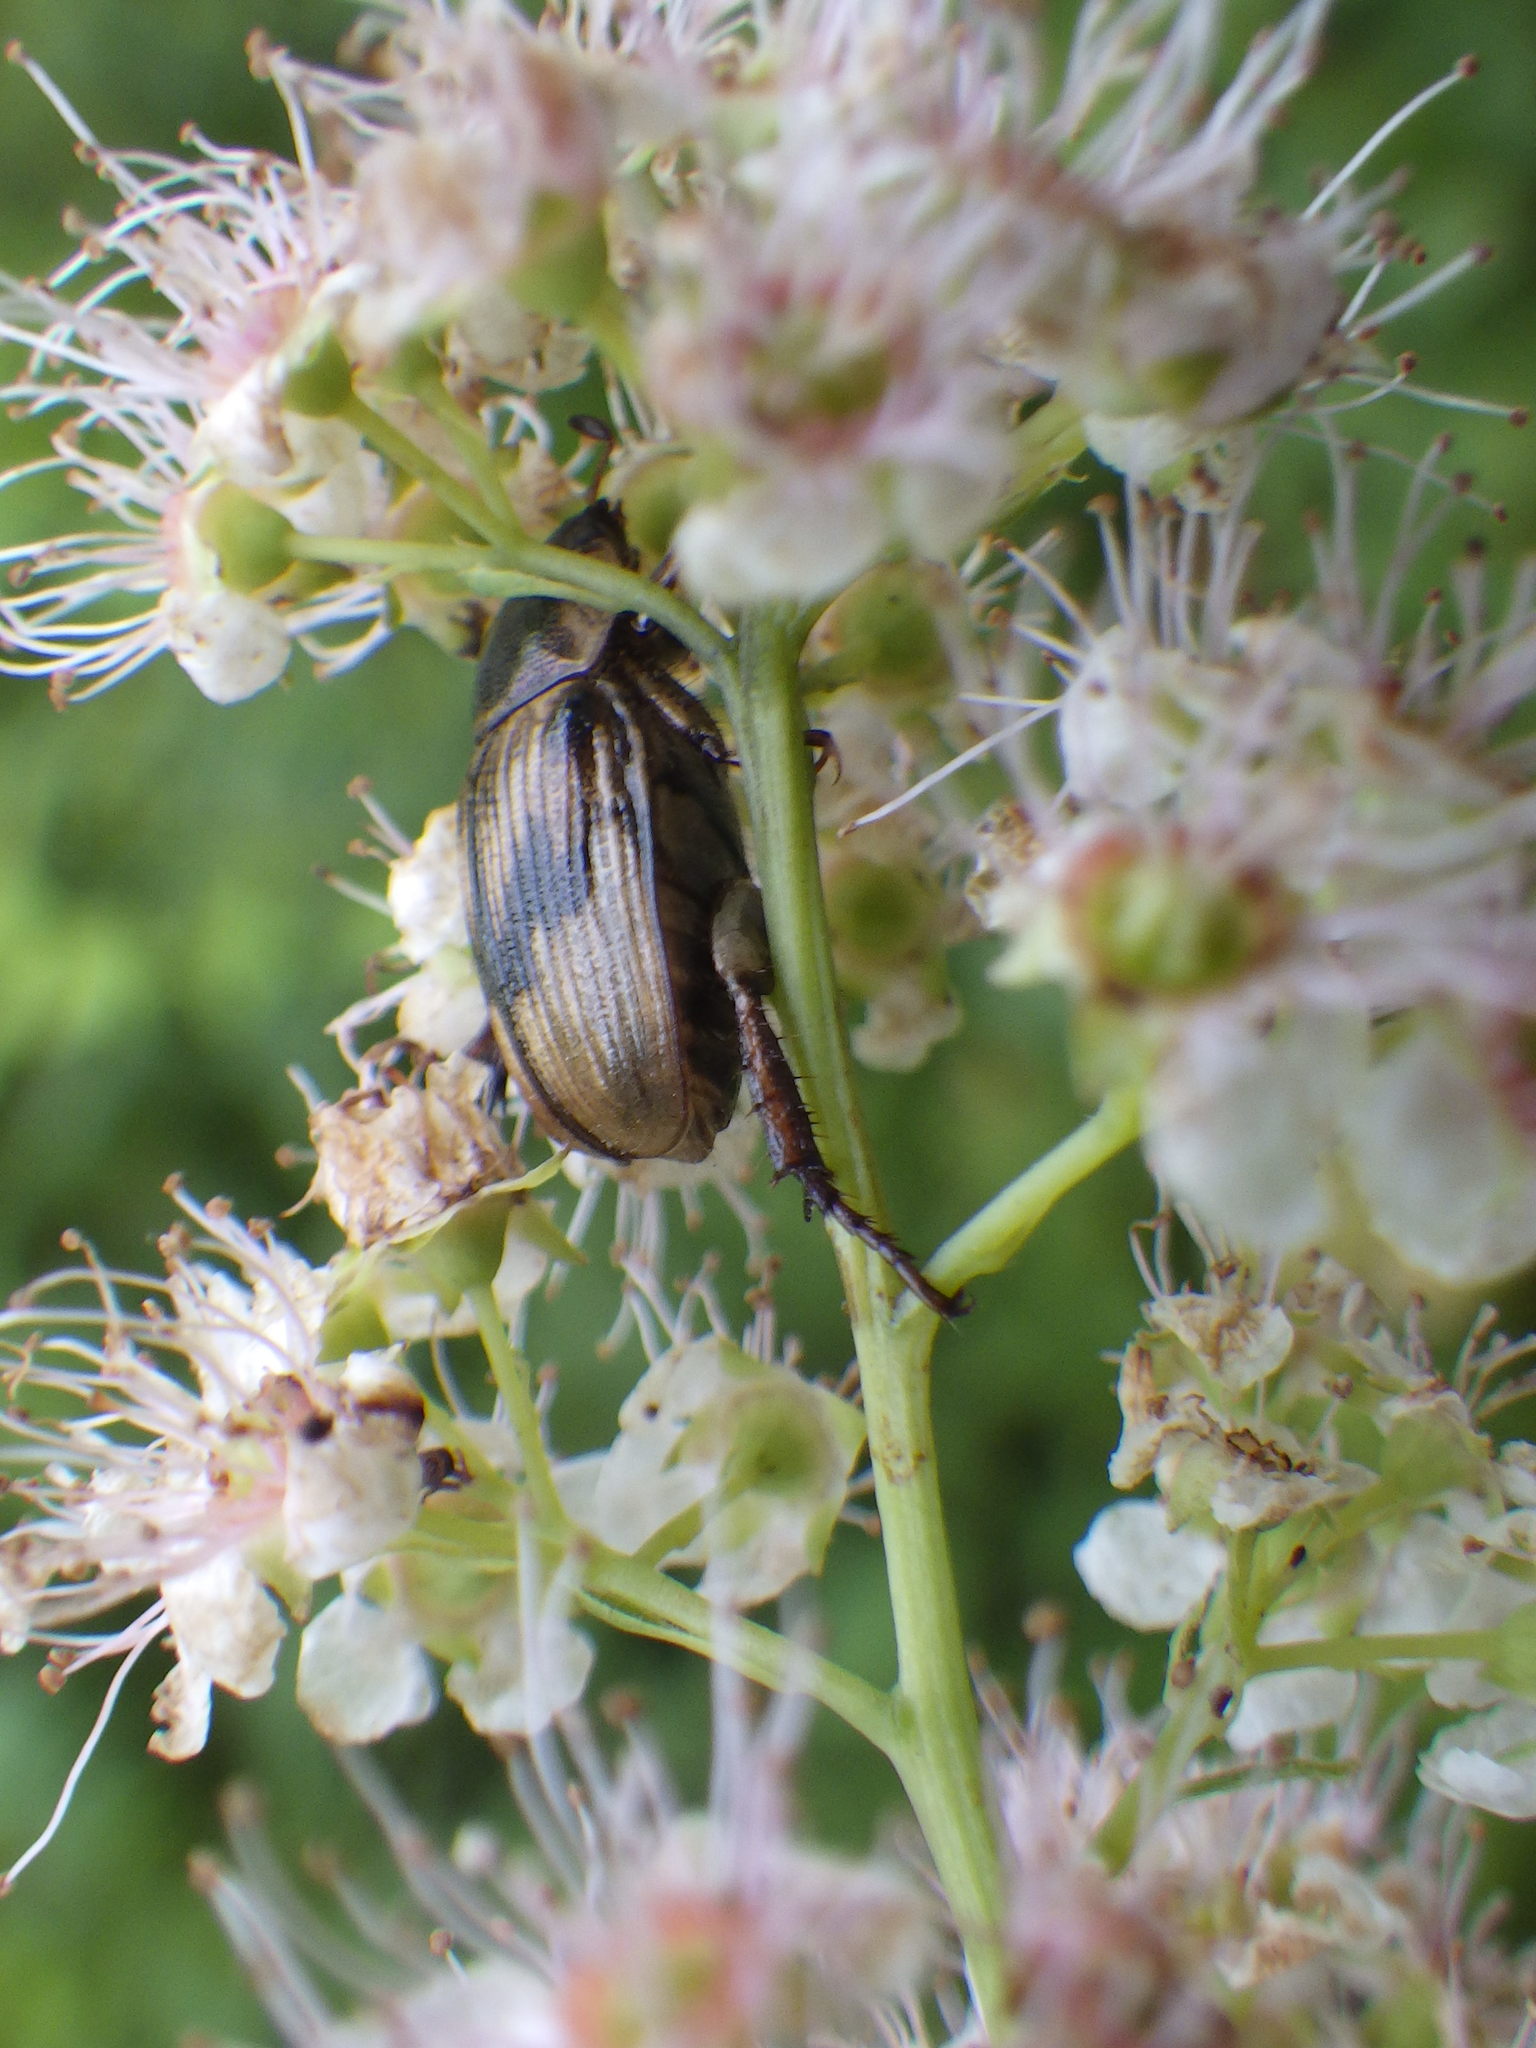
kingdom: Animalia
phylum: Arthropoda
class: Insecta
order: Coleoptera
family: Scarabaeidae
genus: Exomala
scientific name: Exomala orientalis
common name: Oriental beetle
